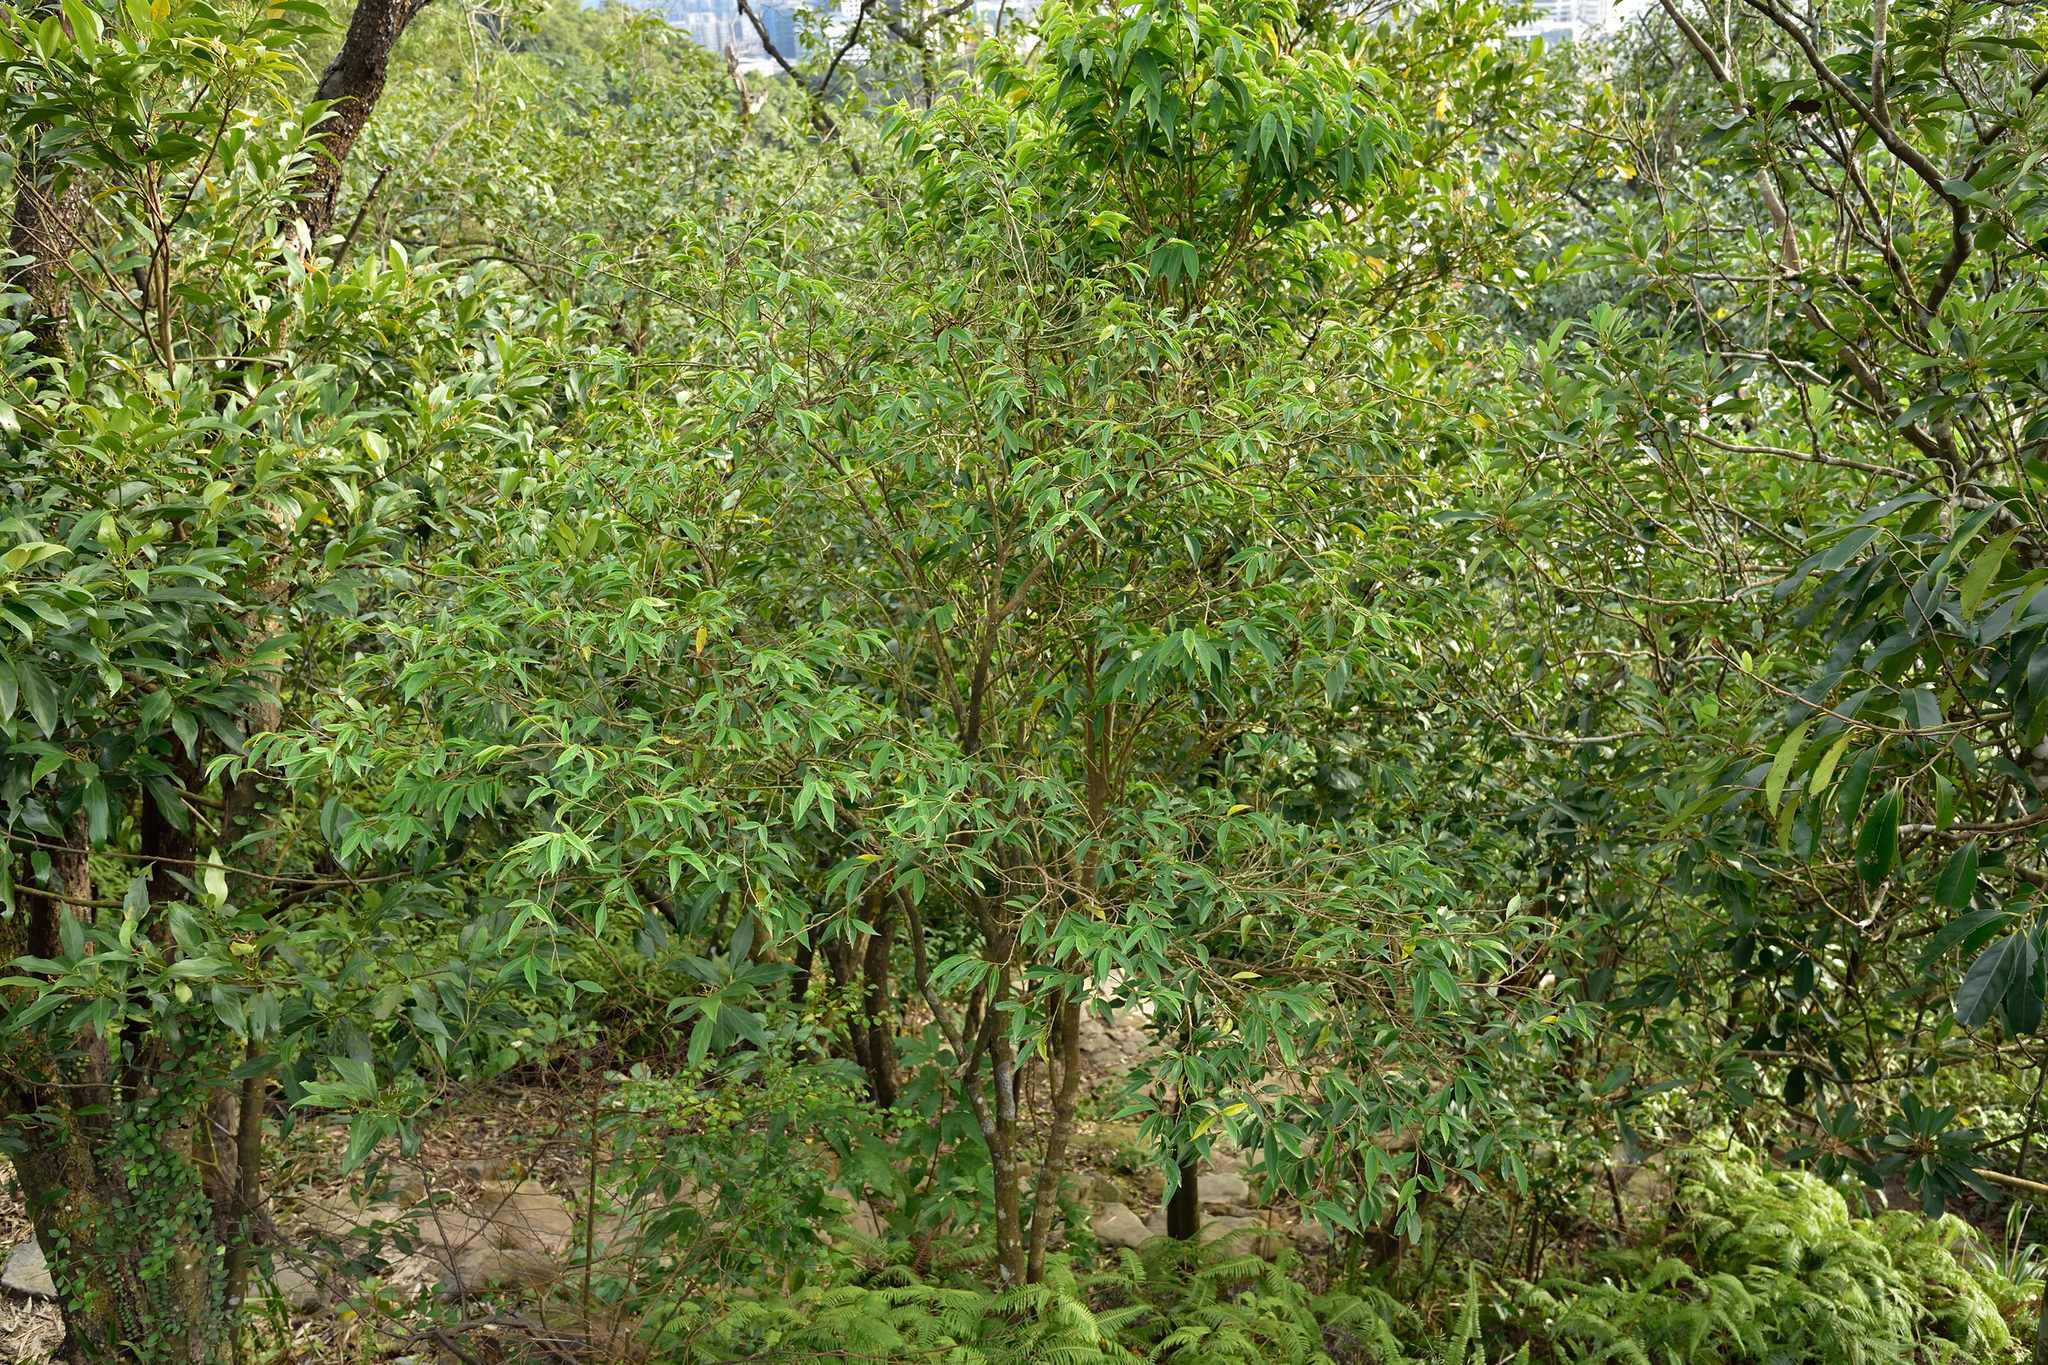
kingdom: Plantae
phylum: Tracheophyta
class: Magnoliopsida
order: Malpighiales
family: Phyllanthaceae
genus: Antidesma
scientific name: Antidesma japonicum
